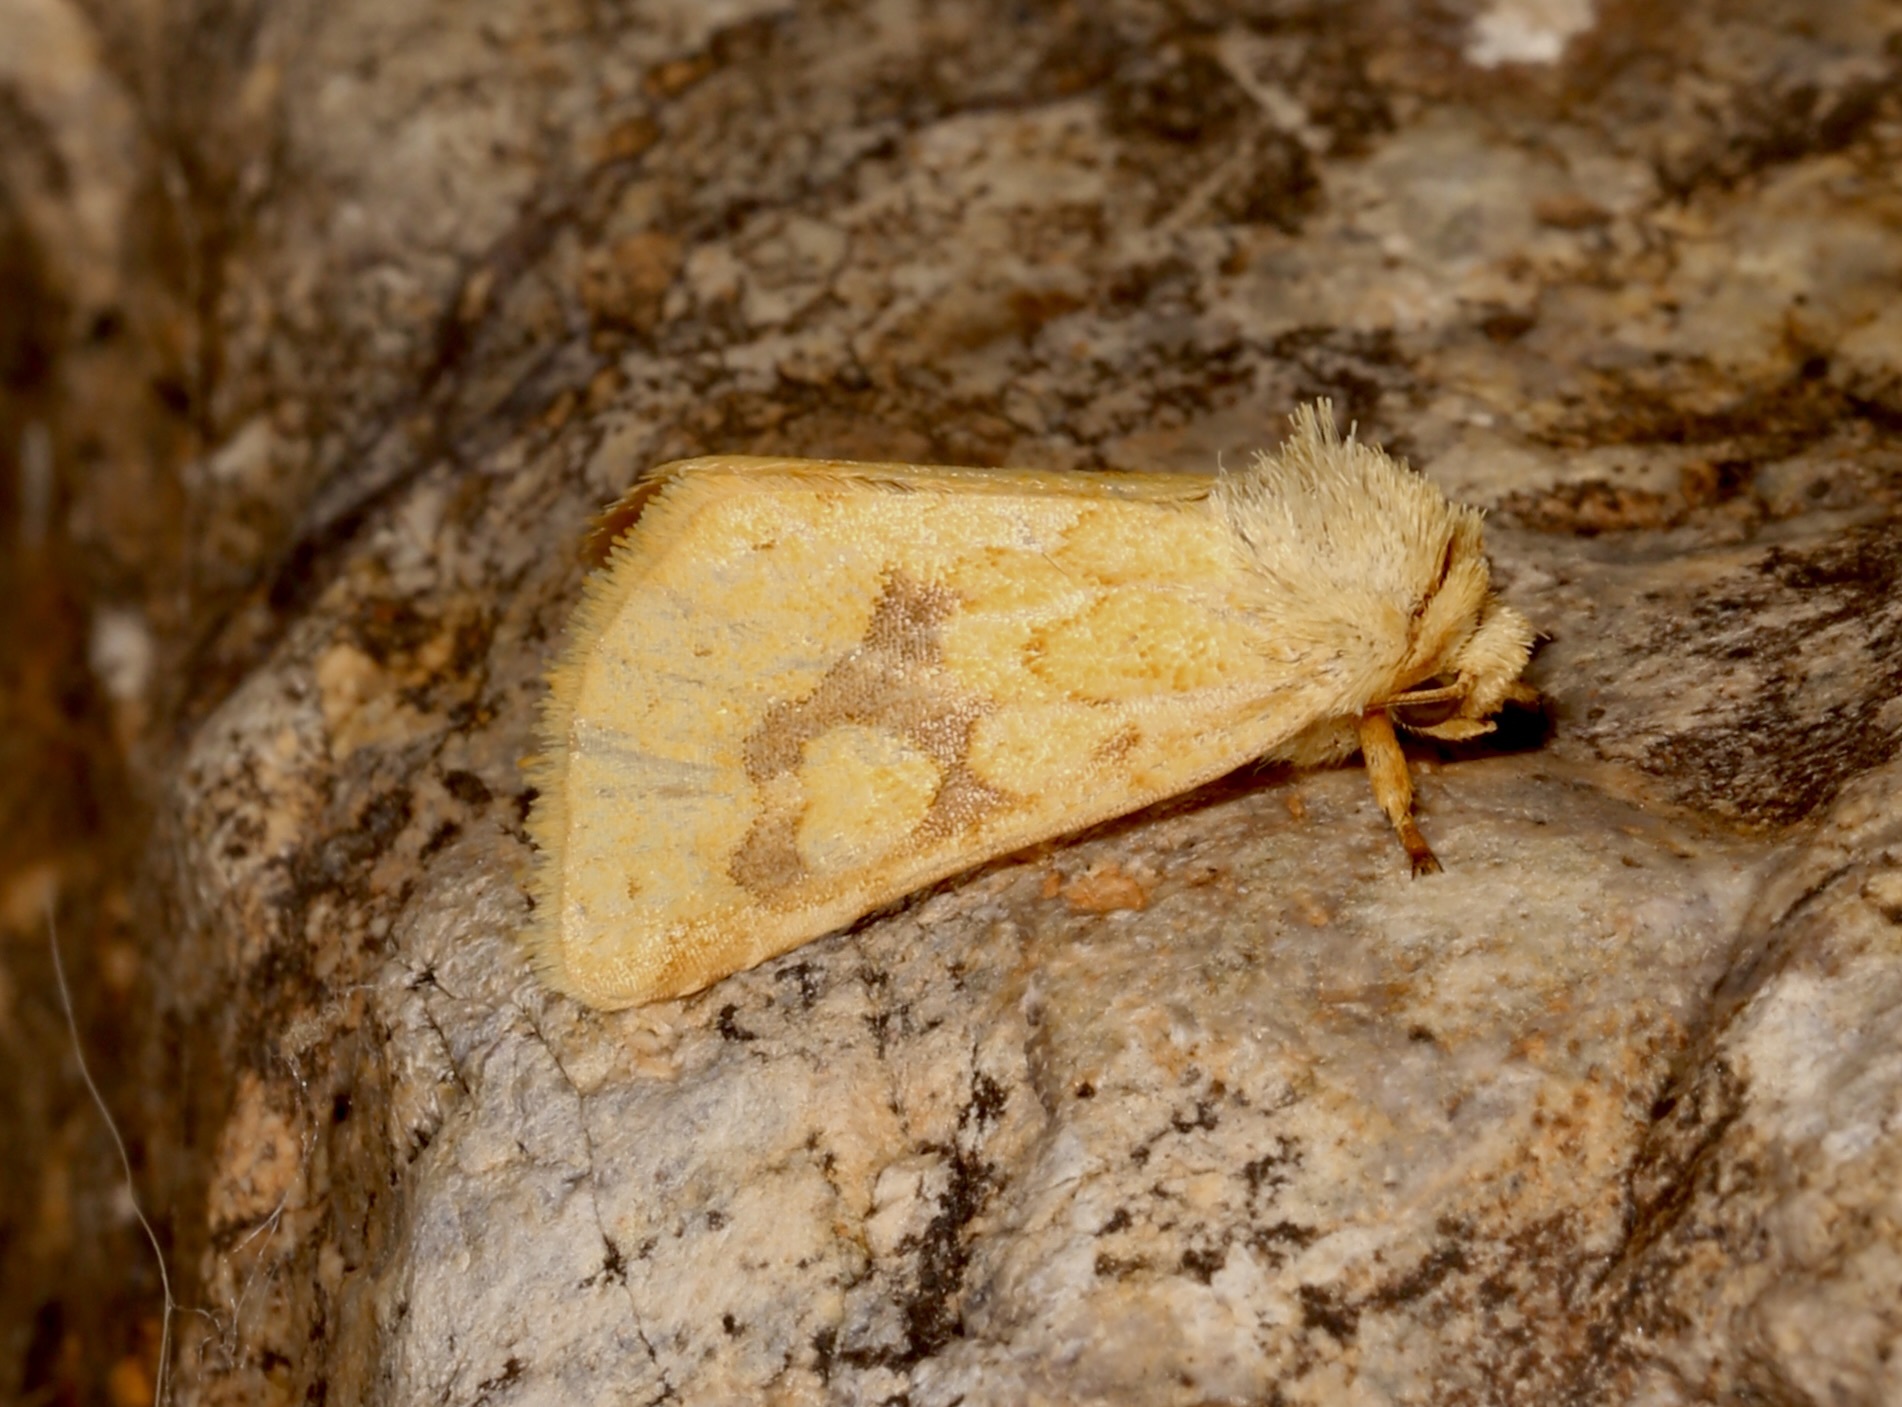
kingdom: Animalia
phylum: Arthropoda
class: Insecta
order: Lepidoptera
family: Noctuidae
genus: Nocloa
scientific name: Nocloa cordova
